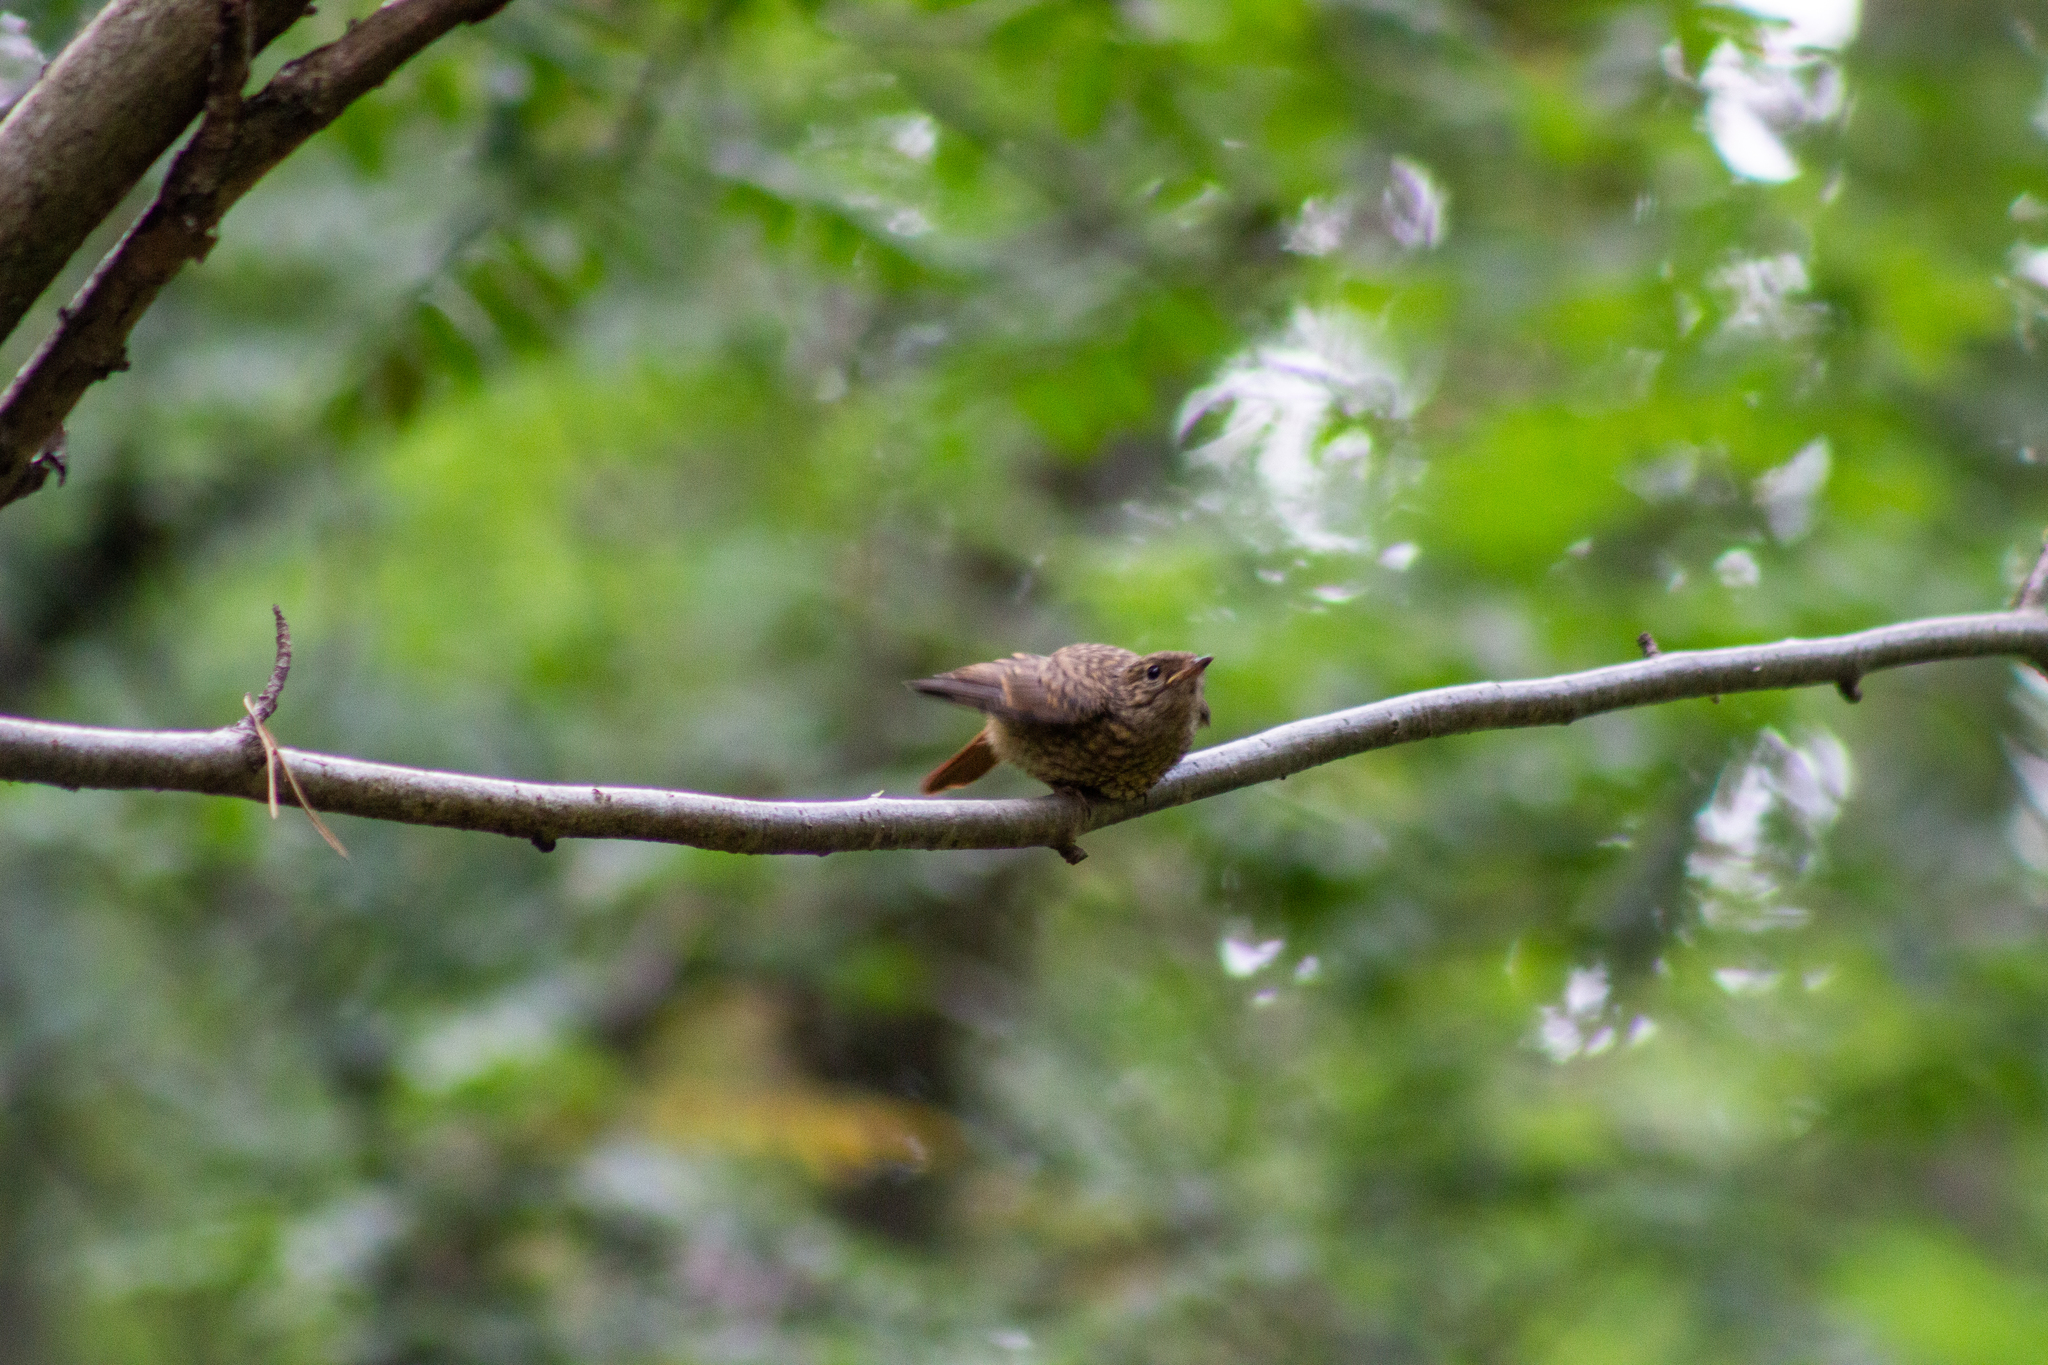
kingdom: Animalia
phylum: Chordata
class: Aves
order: Passeriformes
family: Muscicapidae
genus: Phoenicurus
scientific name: Phoenicurus phoenicurus
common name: Common redstart
